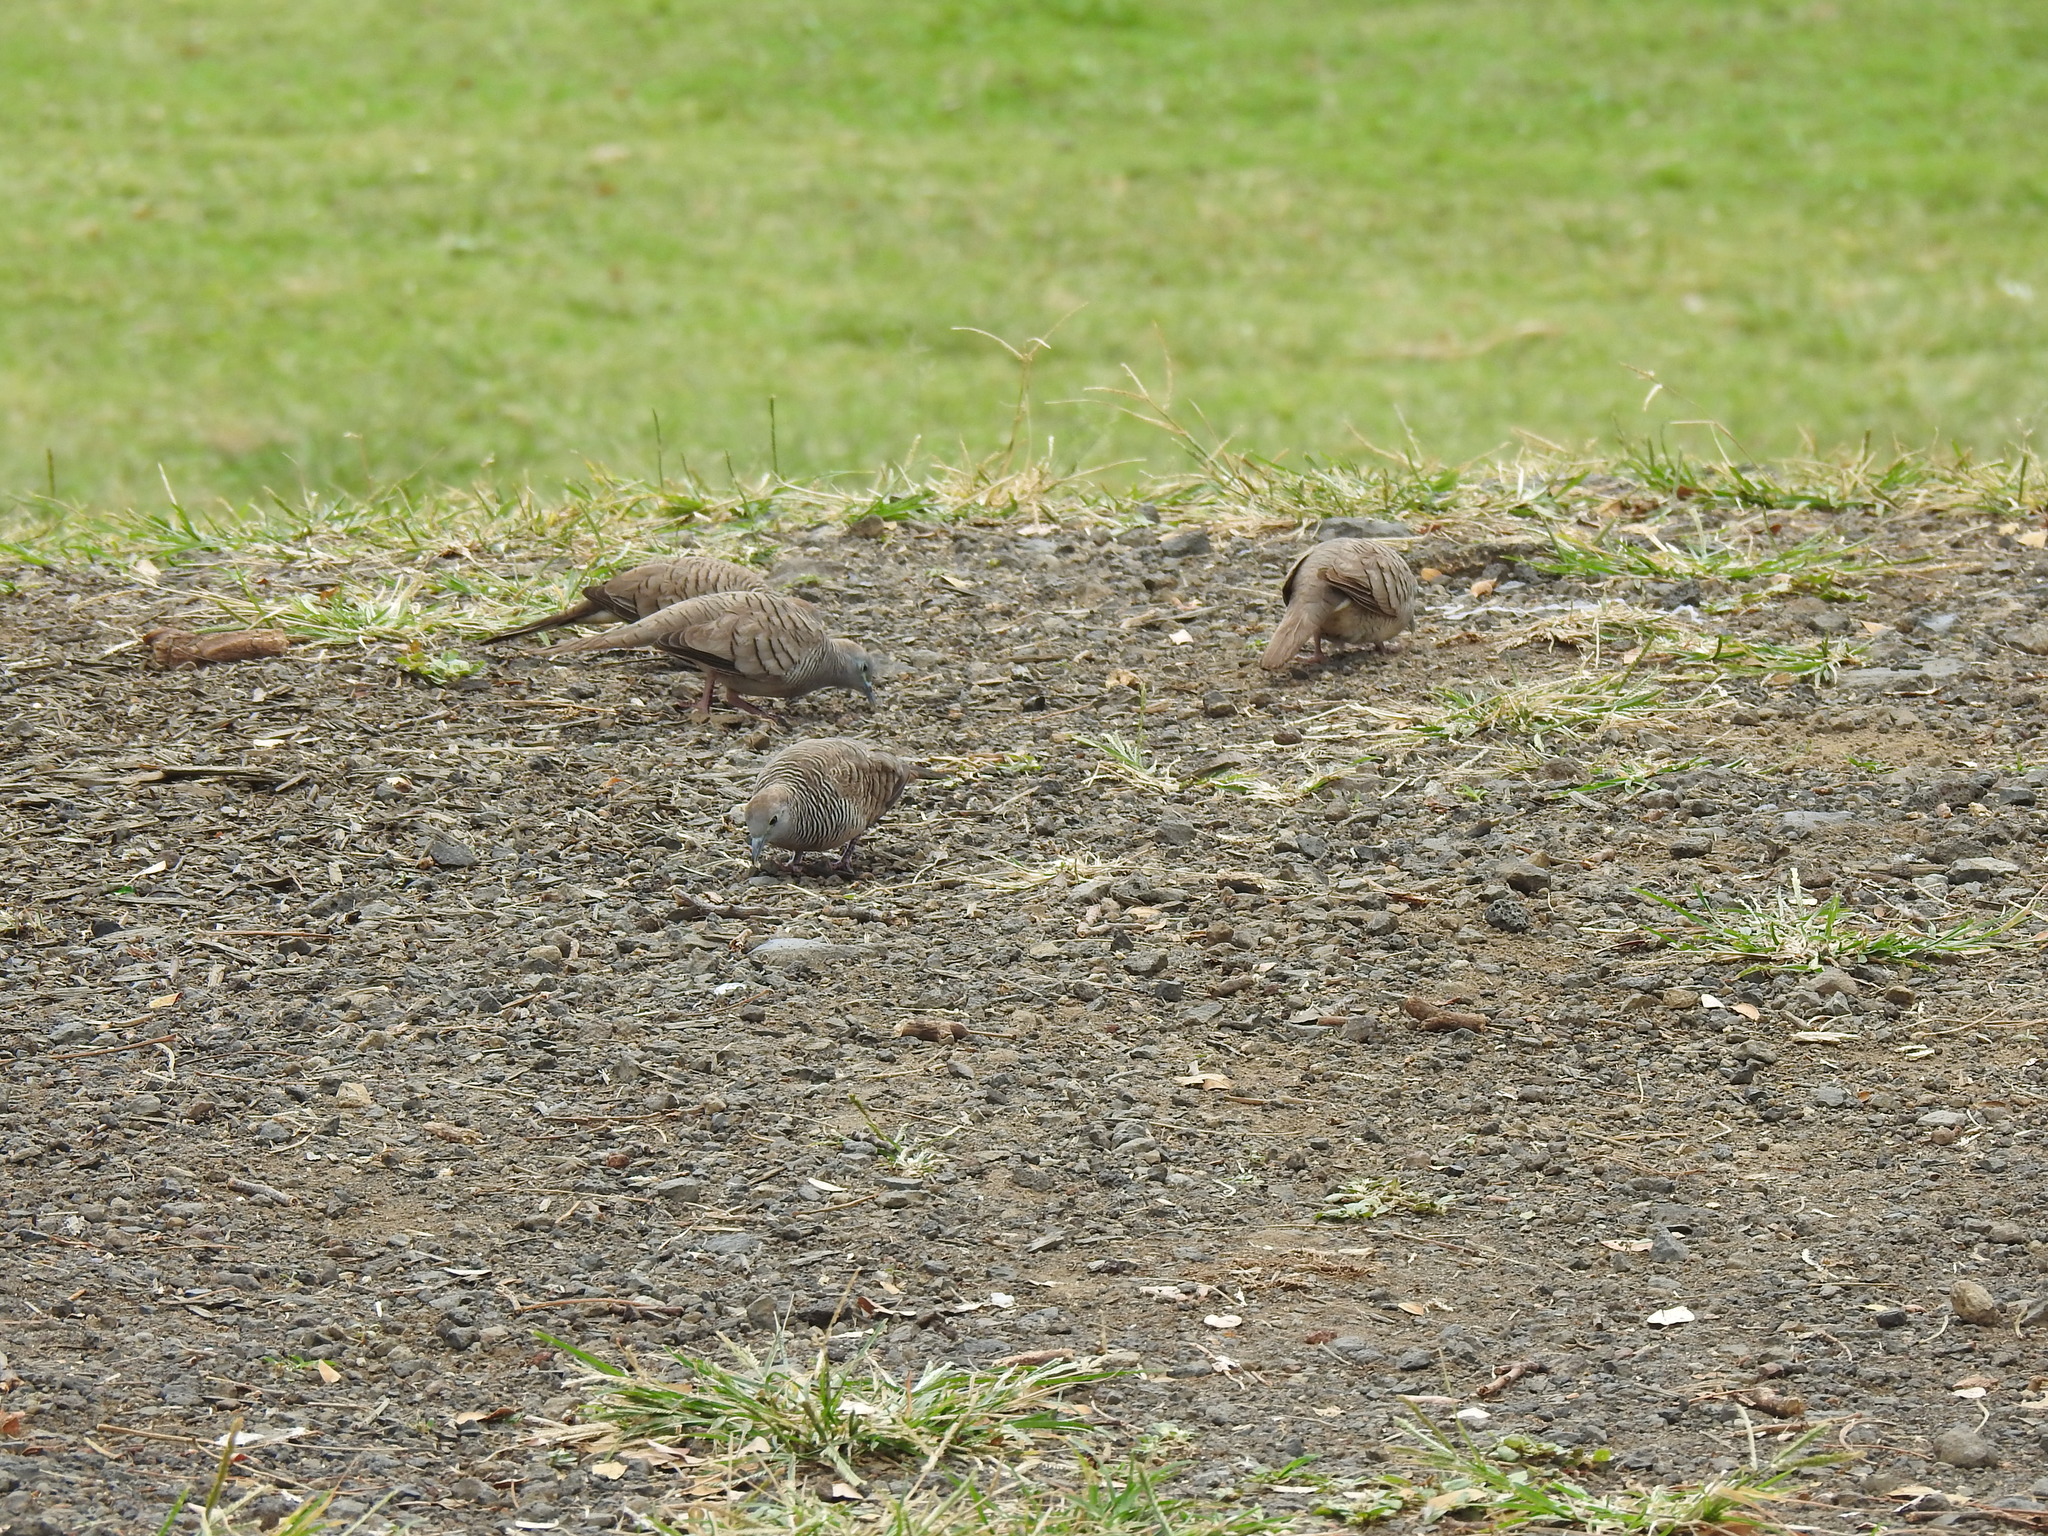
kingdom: Animalia
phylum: Chordata
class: Aves
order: Columbiformes
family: Columbidae
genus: Geopelia
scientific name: Geopelia striata
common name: Zebra dove
